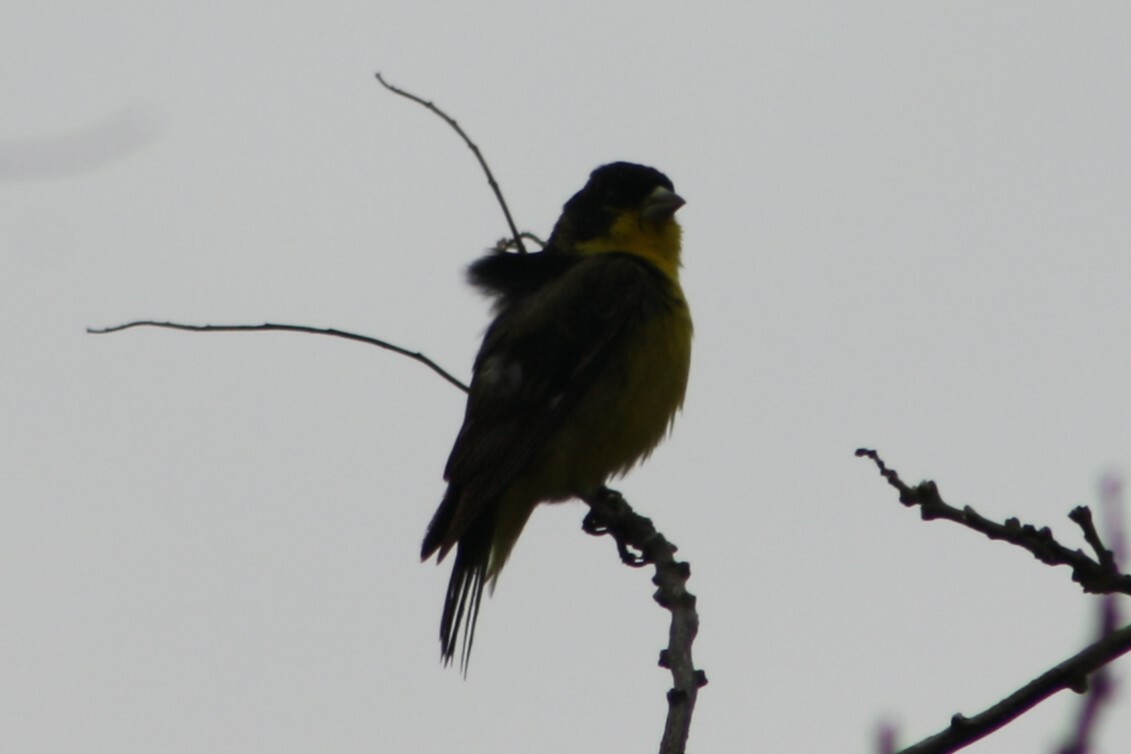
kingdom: Animalia
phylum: Chordata
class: Aves
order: Passeriformes
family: Fringillidae
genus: Spinus
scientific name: Spinus psaltria
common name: Lesser goldfinch
